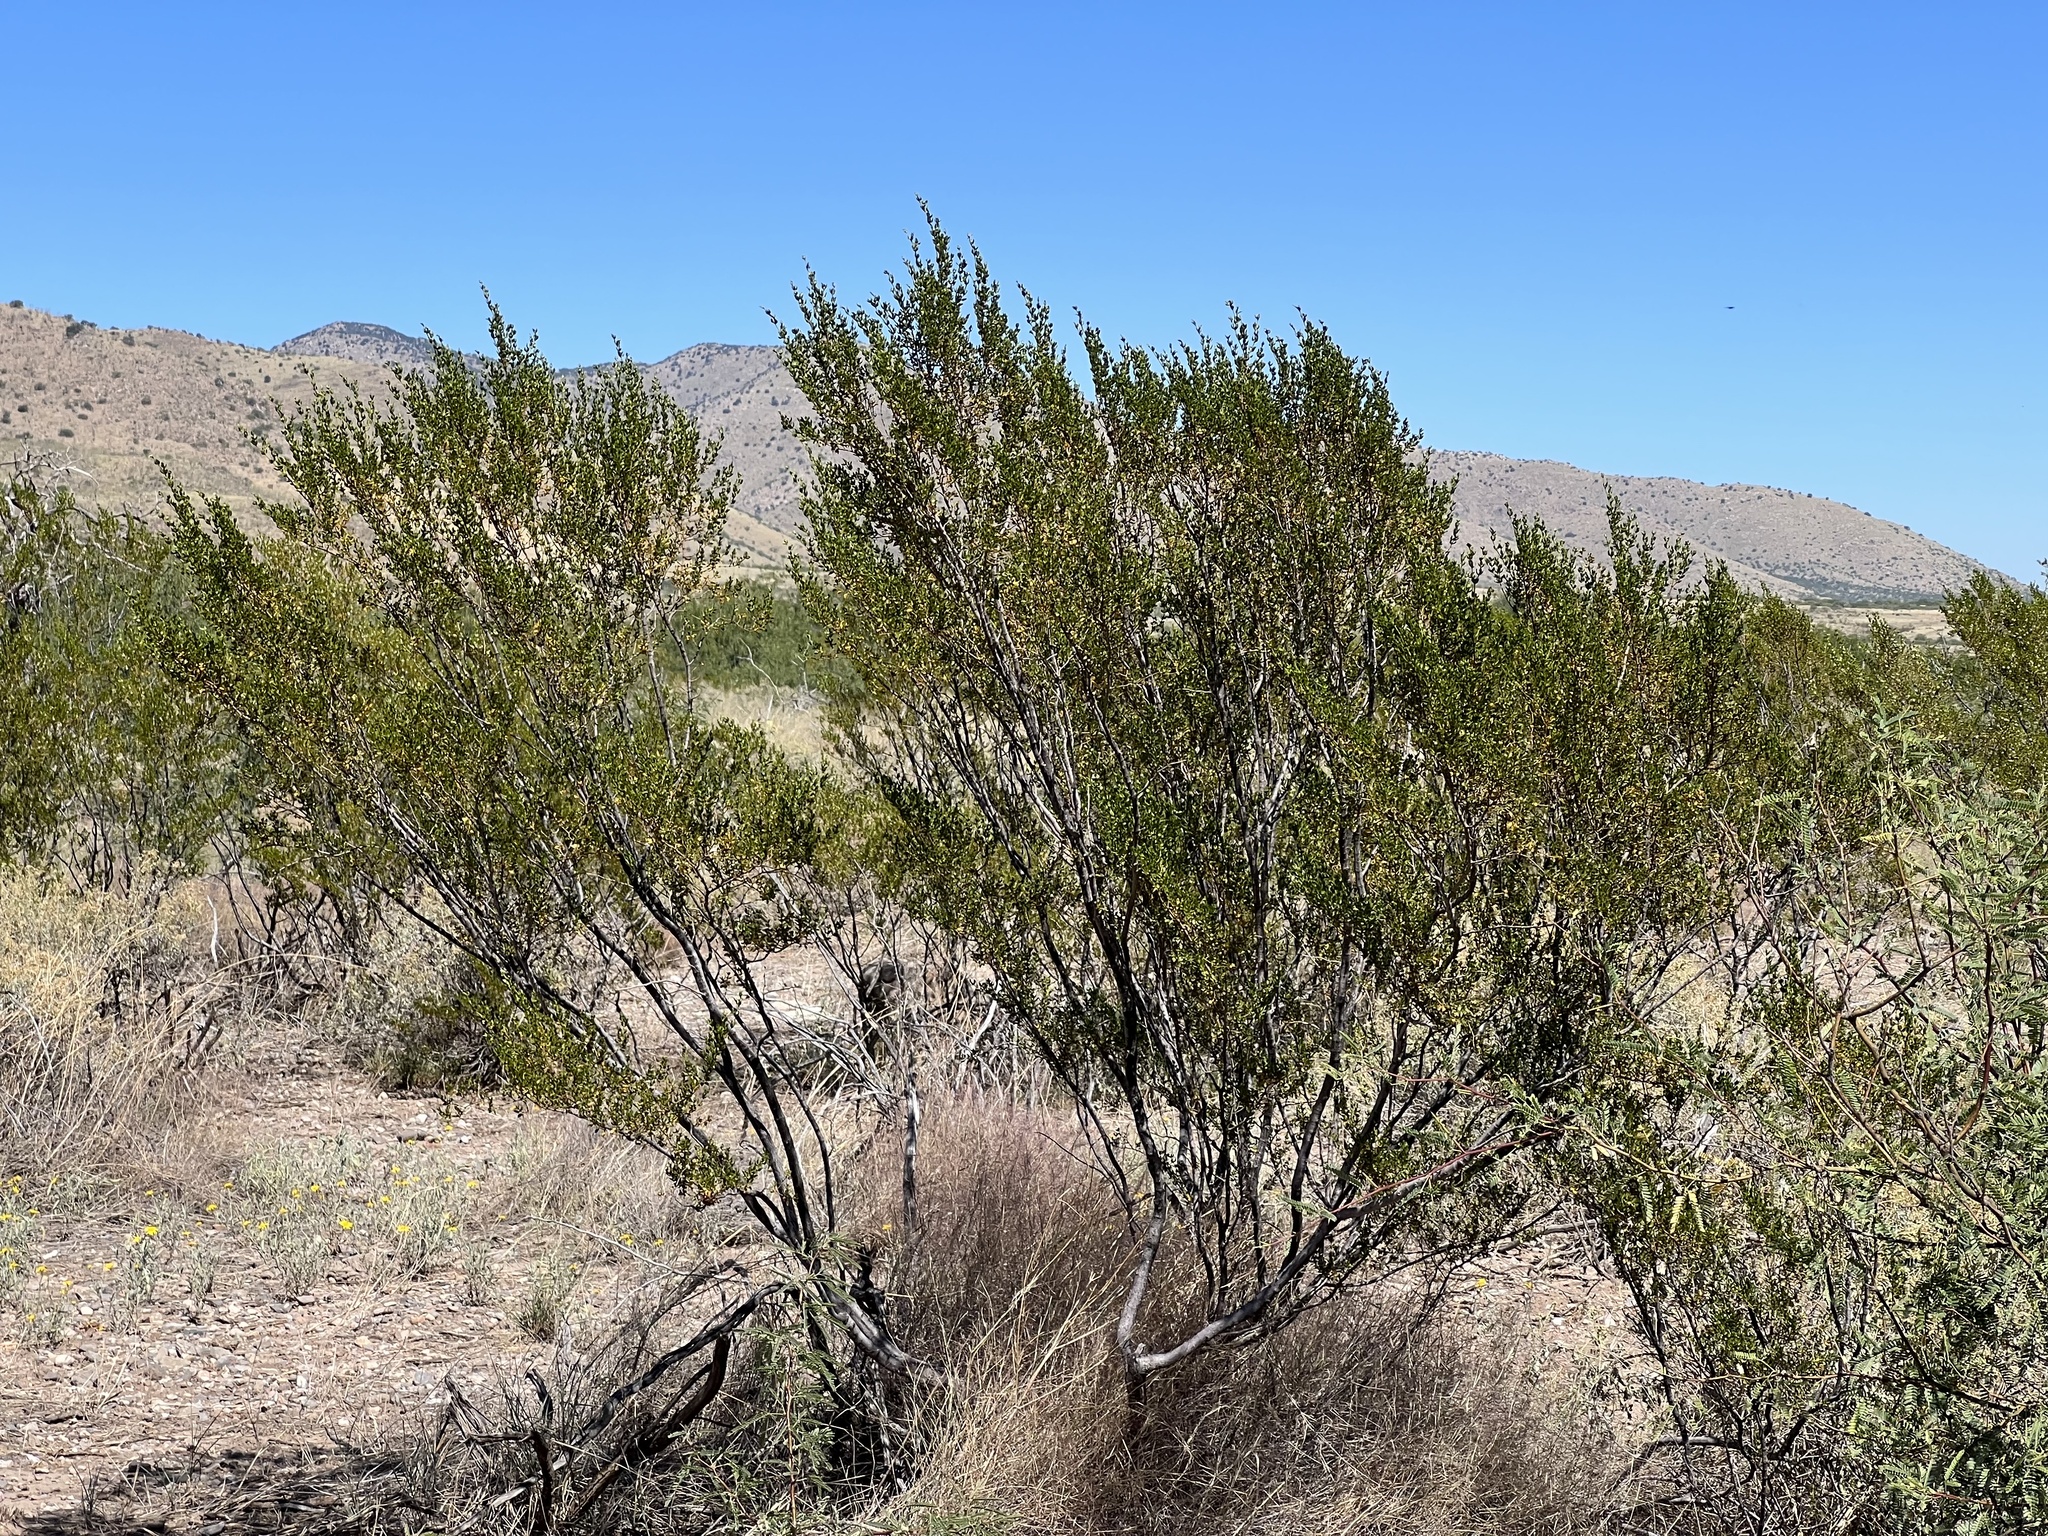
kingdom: Plantae
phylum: Tracheophyta
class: Magnoliopsida
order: Zygophyllales
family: Zygophyllaceae
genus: Larrea
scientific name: Larrea tridentata
